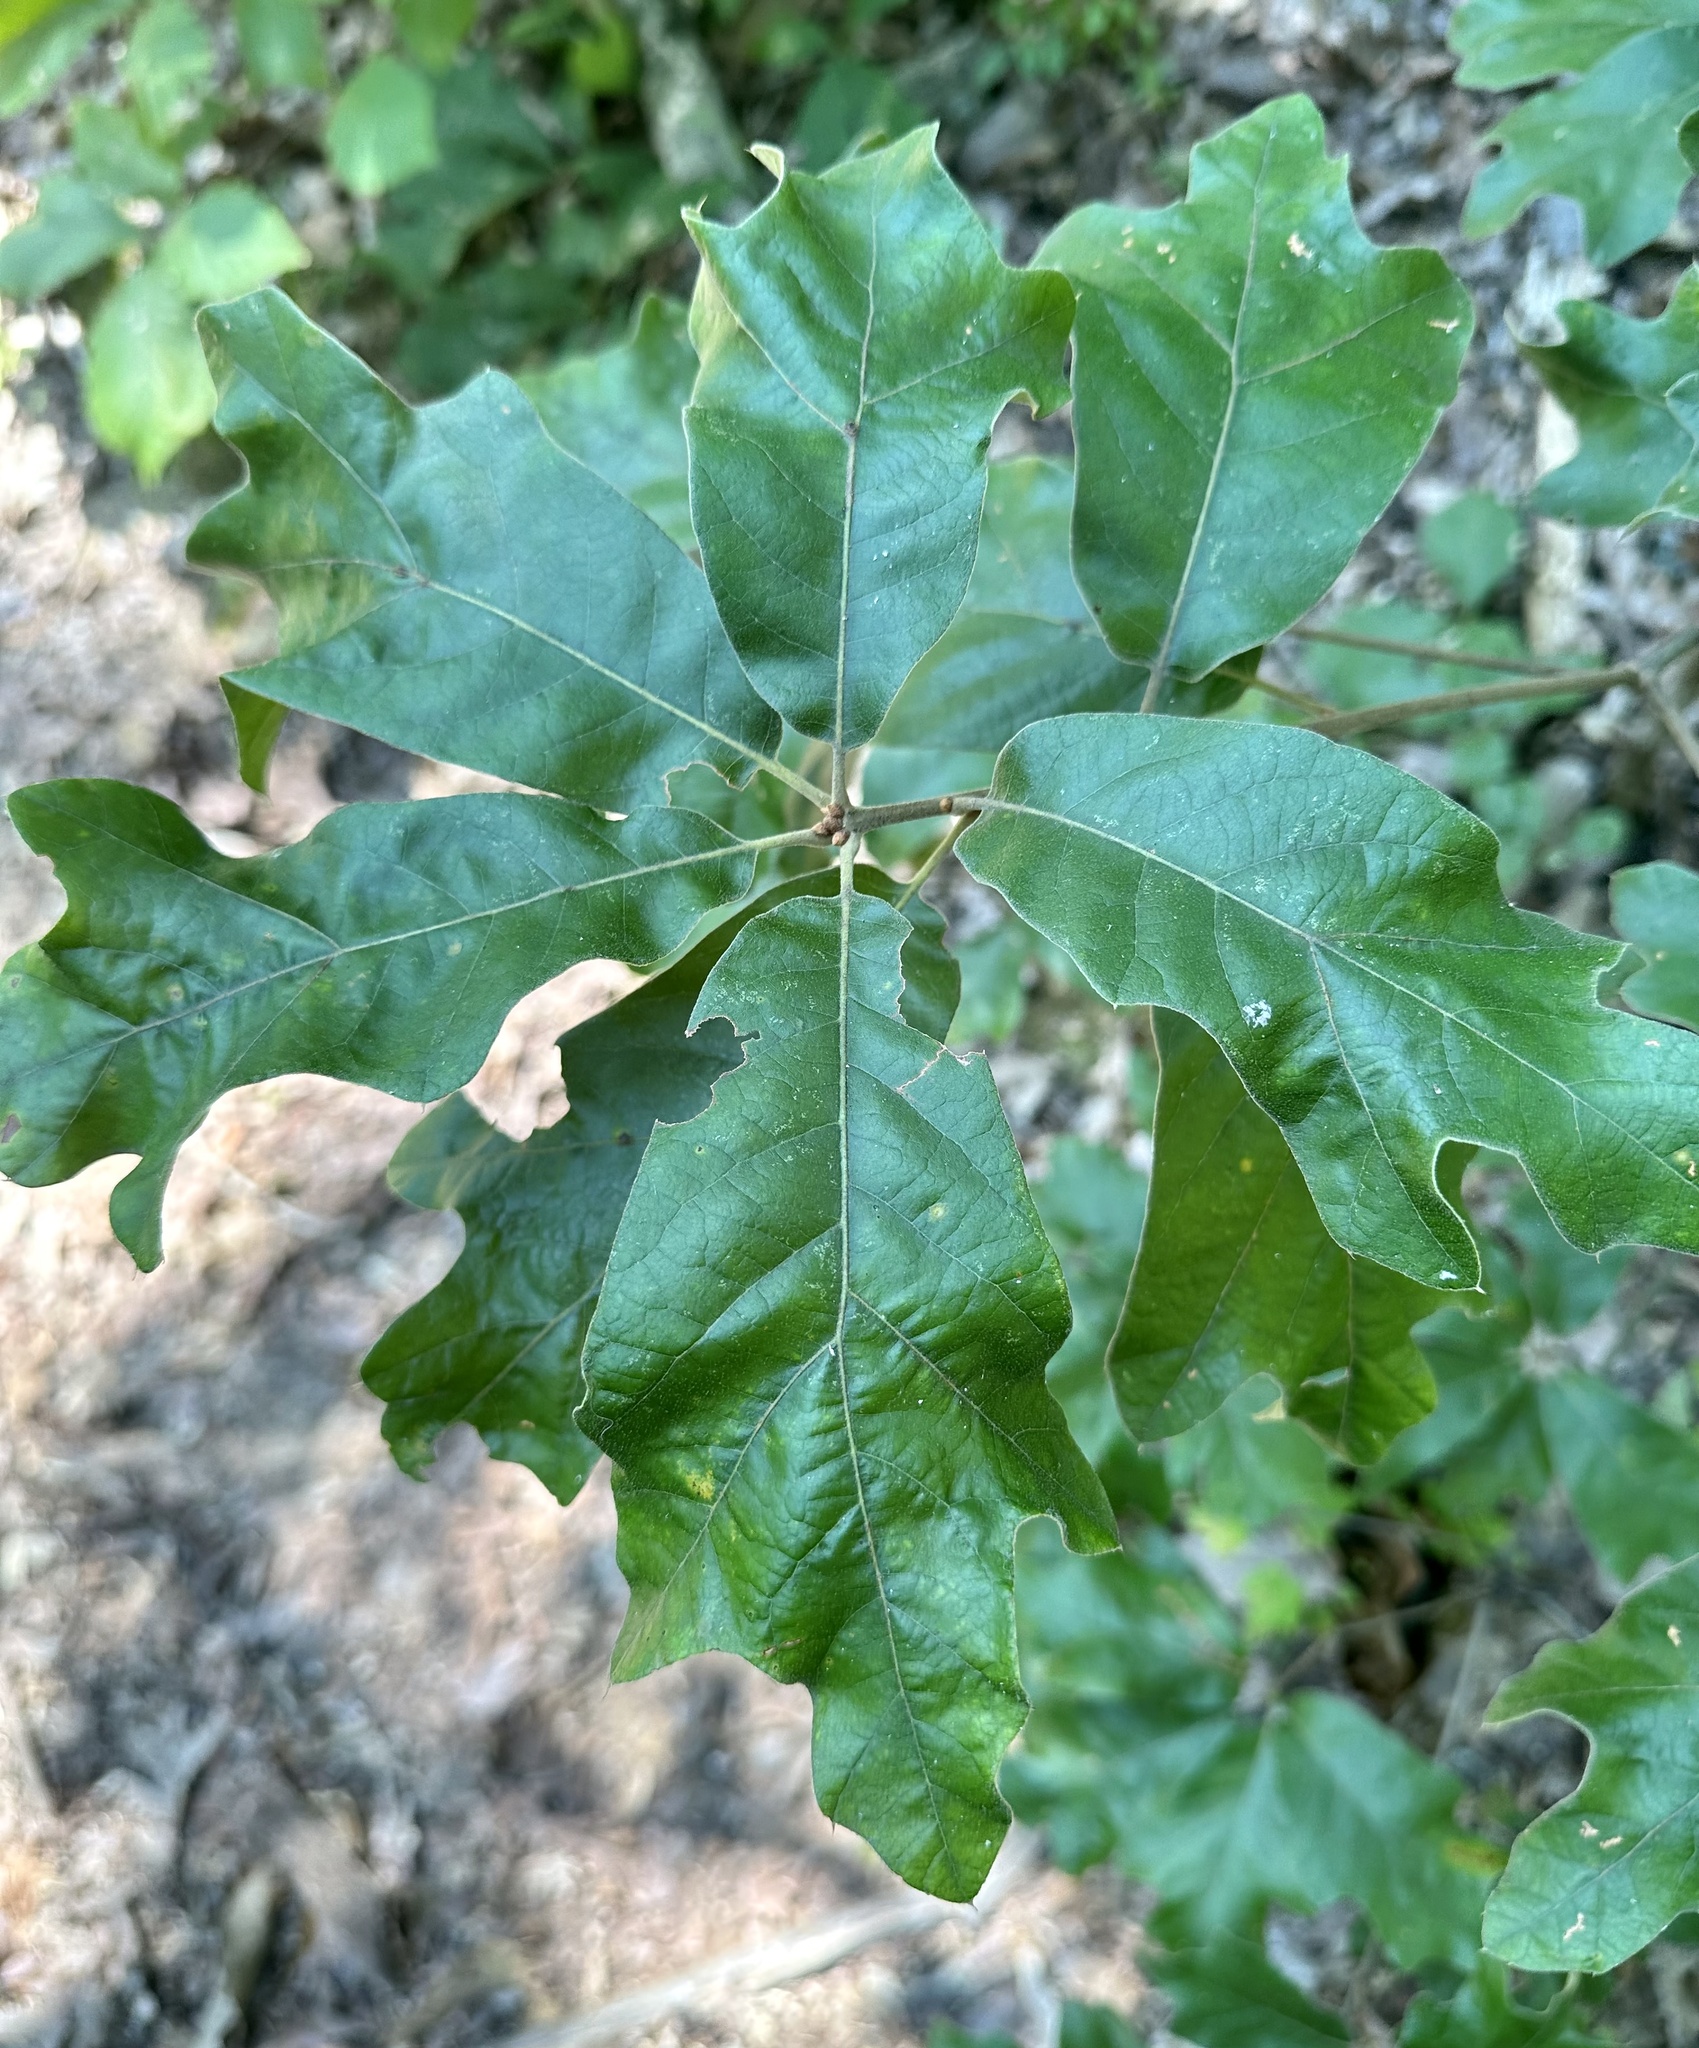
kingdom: Plantae
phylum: Tracheophyta
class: Magnoliopsida
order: Fagales
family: Fagaceae
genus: Quercus
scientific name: Quercus falcata
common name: Southern red oak
